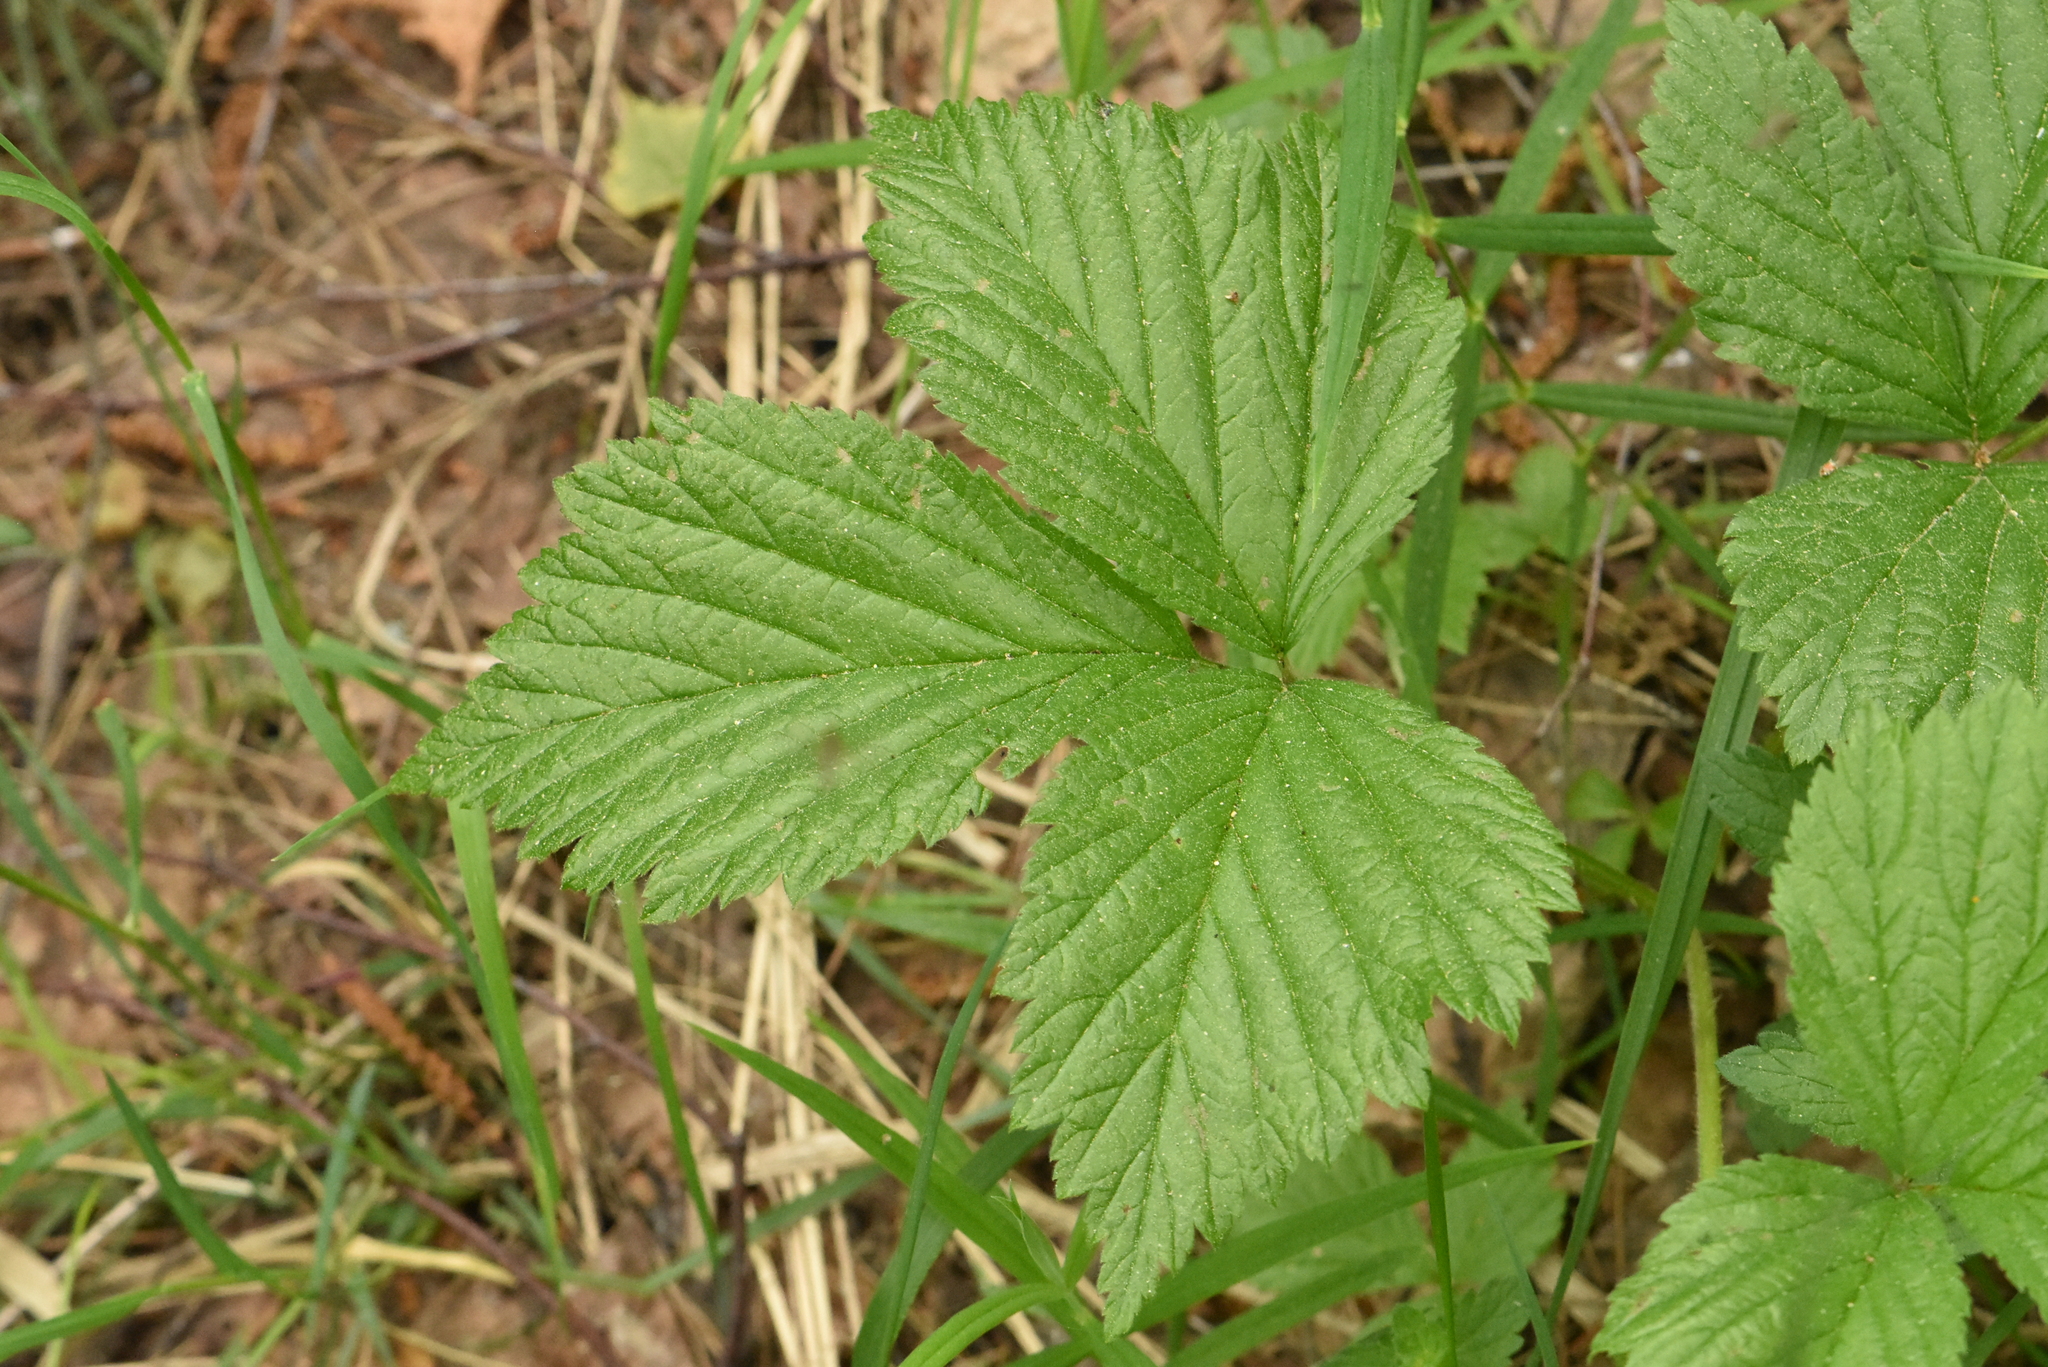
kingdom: Plantae
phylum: Tracheophyta
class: Magnoliopsida
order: Rosales
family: Rosaceae
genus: Rubus
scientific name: Rubus saxatilis
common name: Stone bramble
